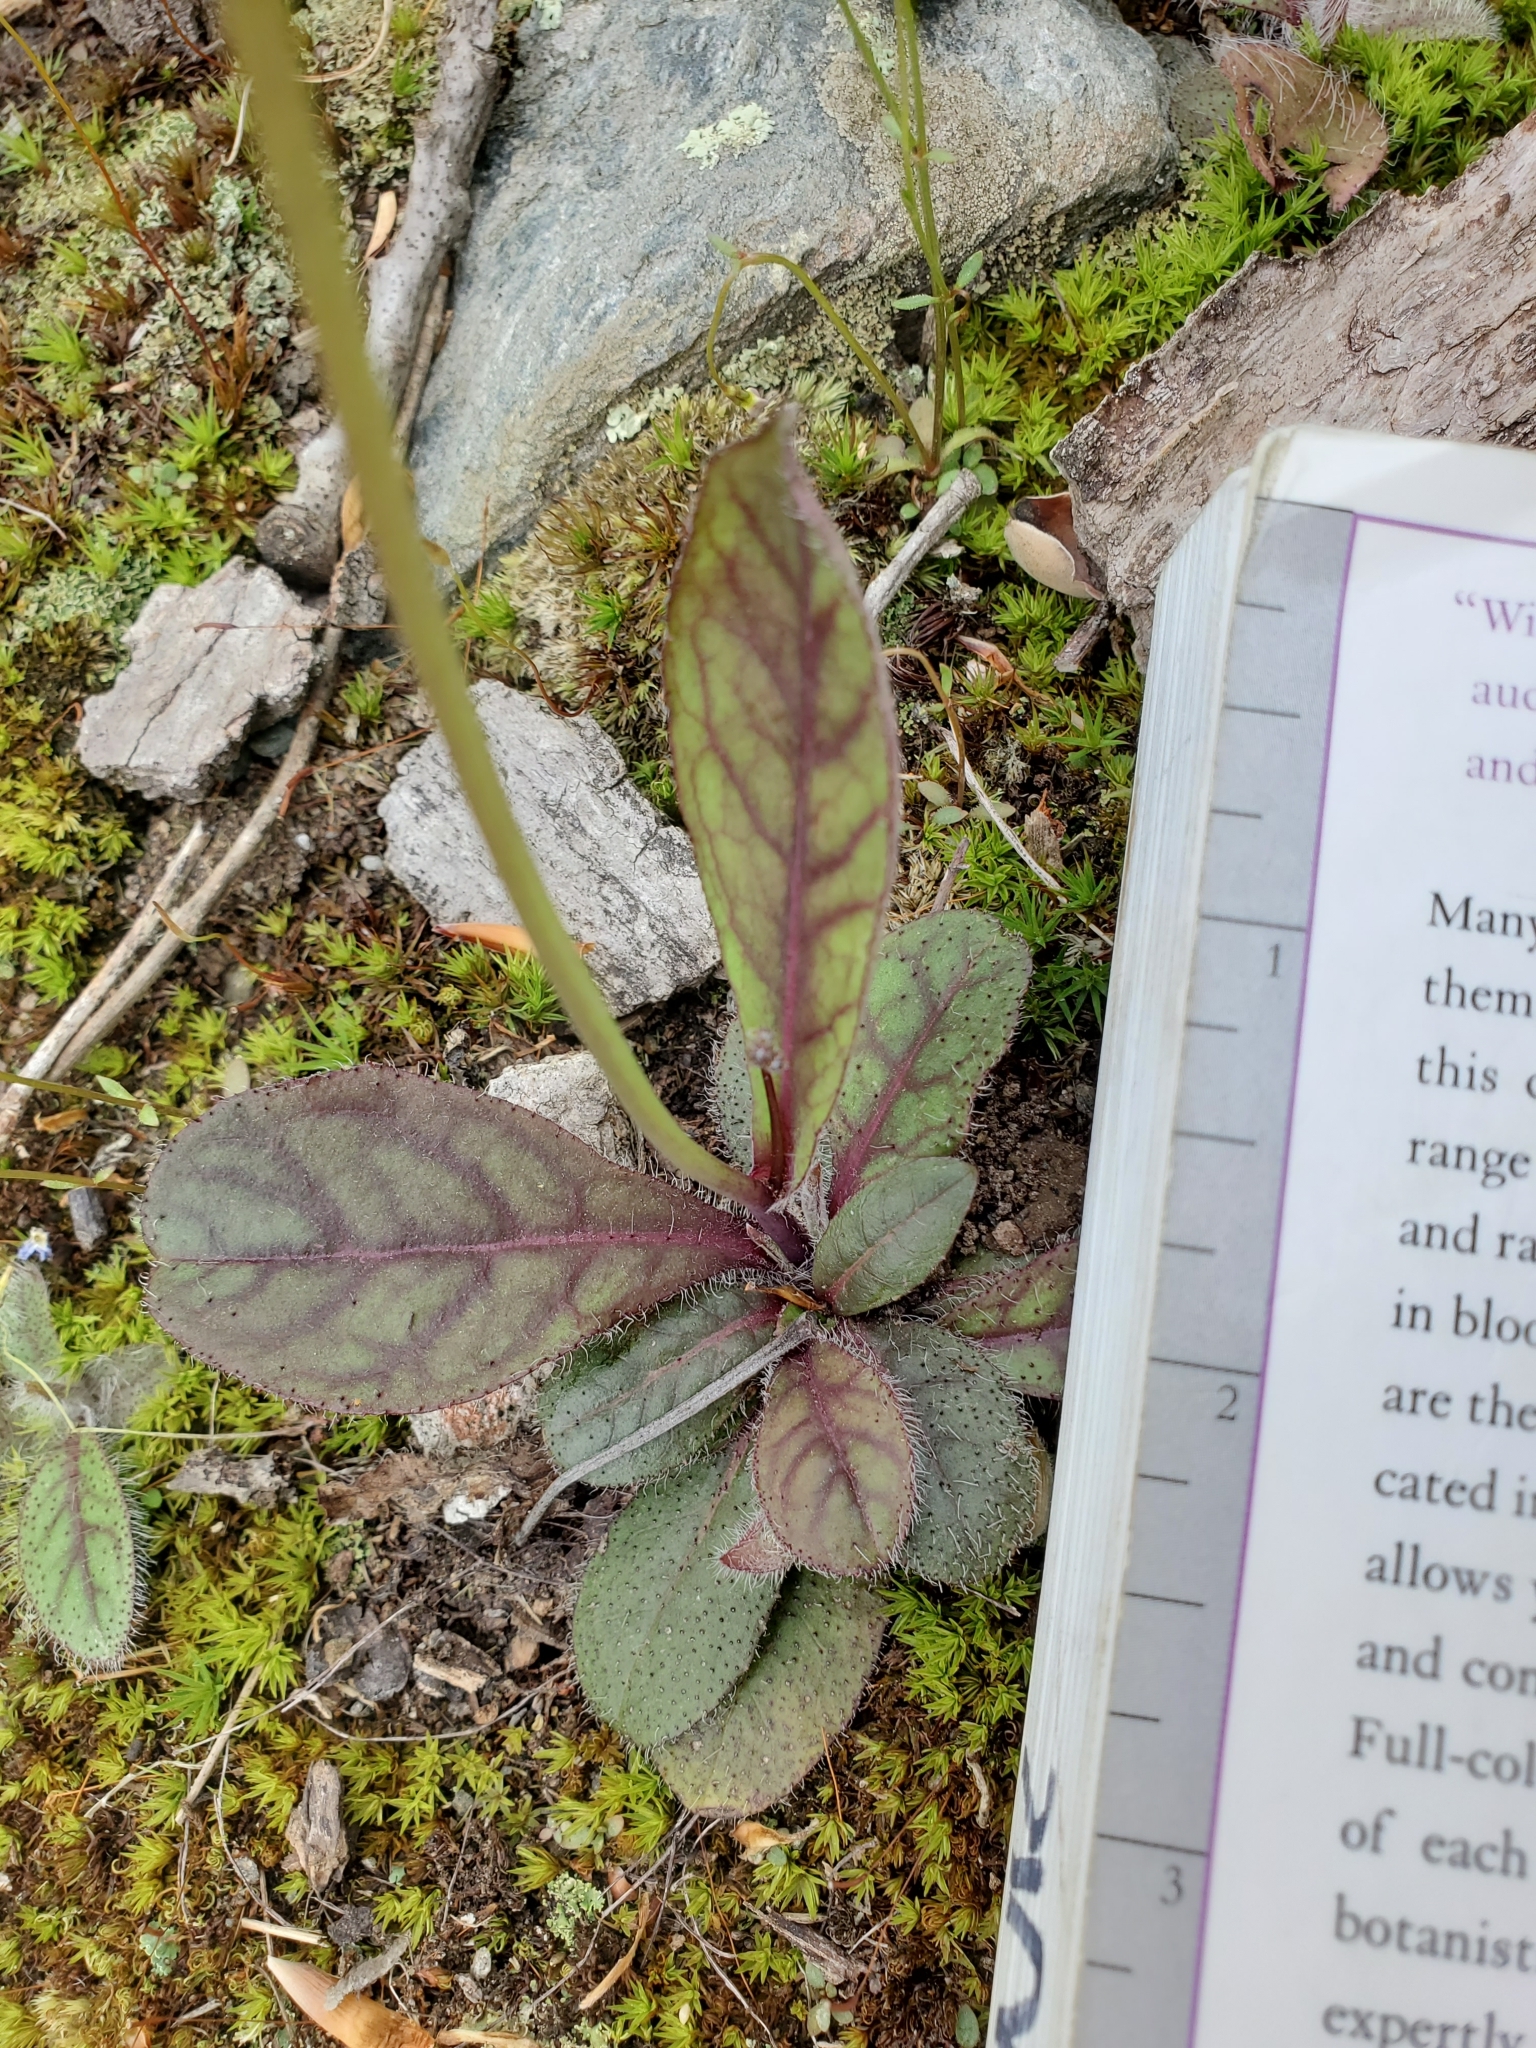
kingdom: Plantae
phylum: Tracheophyta
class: Magnoliopsida
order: Asterales
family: Asteraceae
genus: Hieracium
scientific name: Hieracium venosum
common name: Rattlesnake hawkweed
